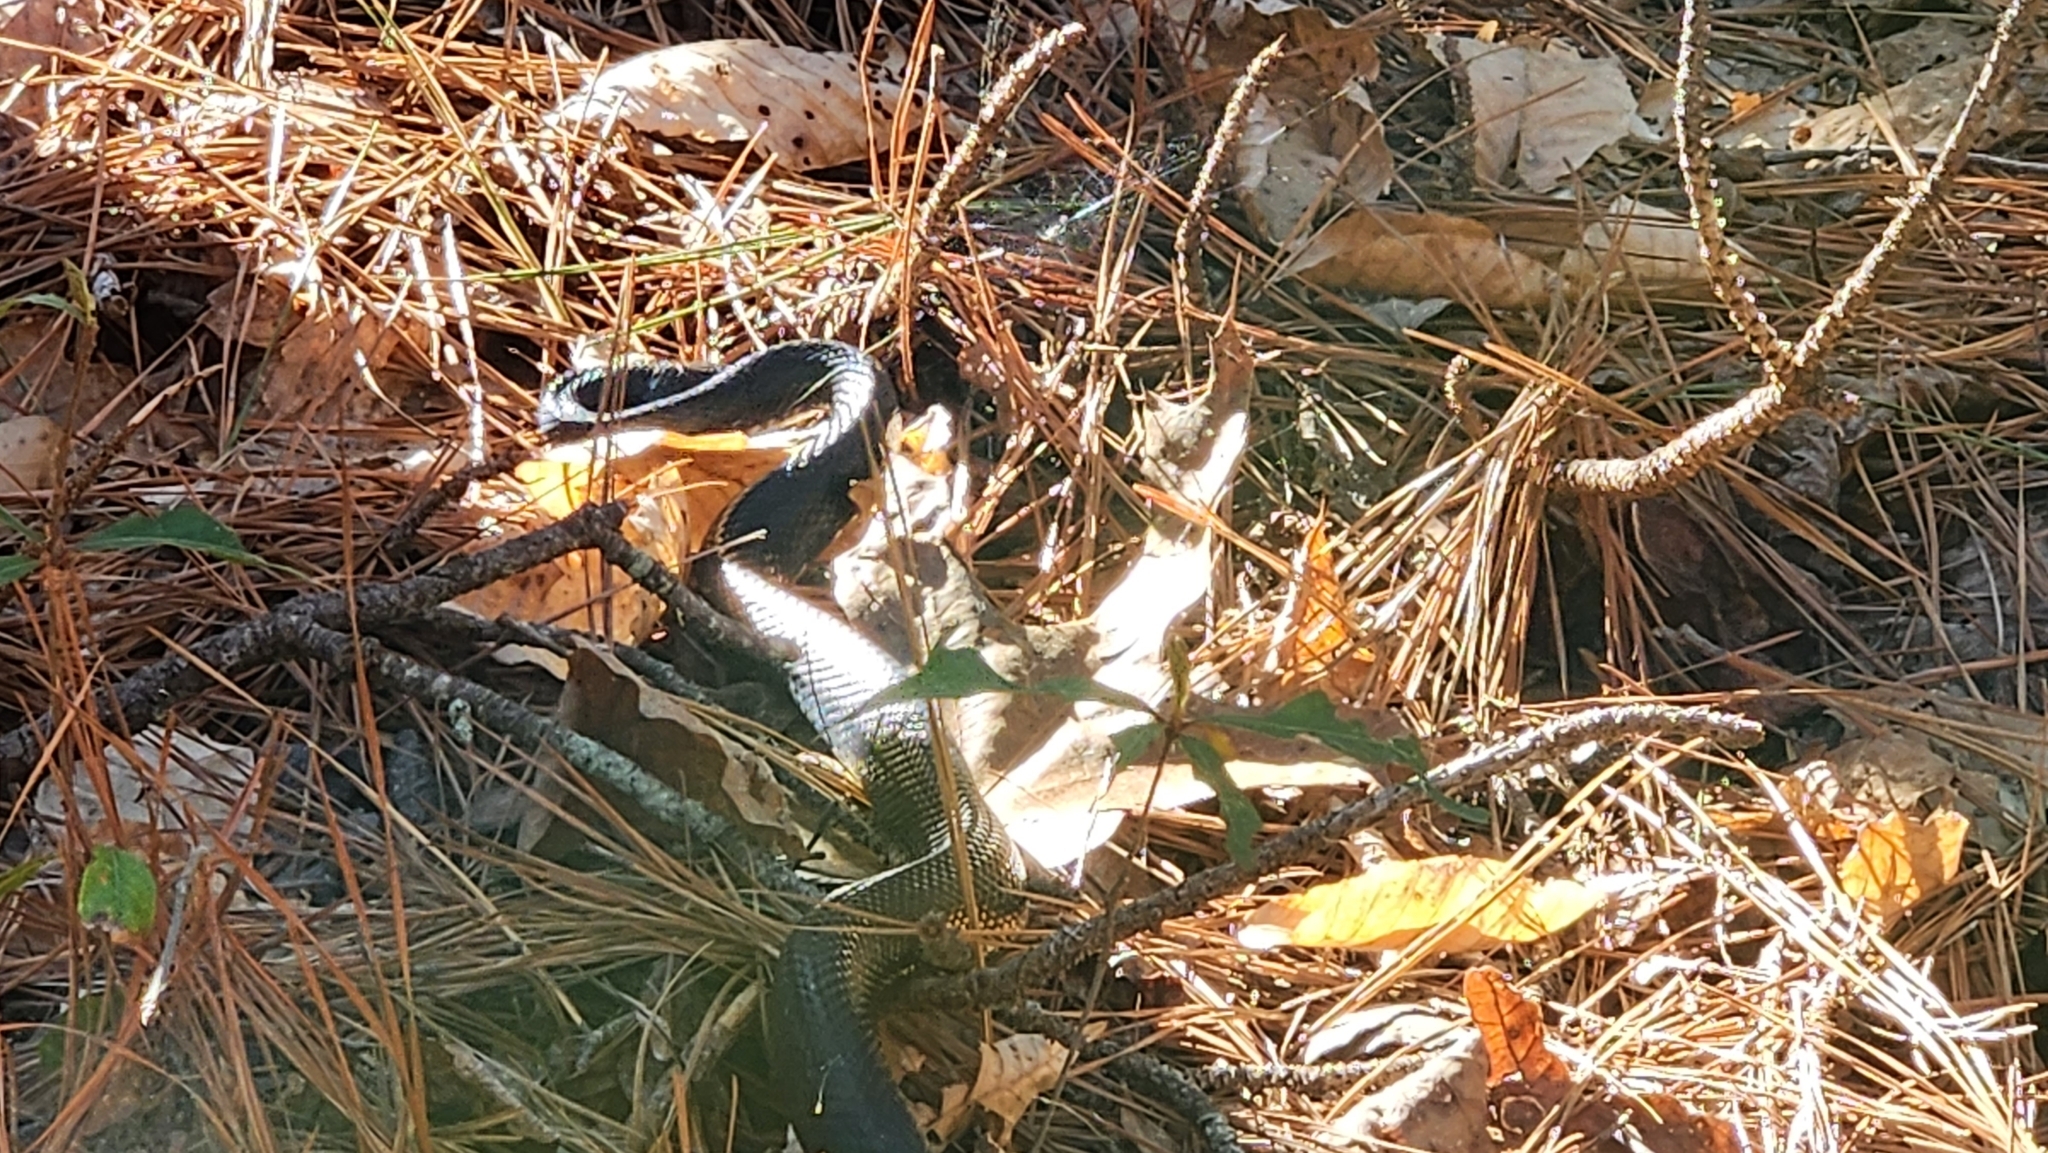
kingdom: Animalia
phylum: Chordata
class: Squamata
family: Colubridae
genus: Pantherophis
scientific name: Pantherophis
